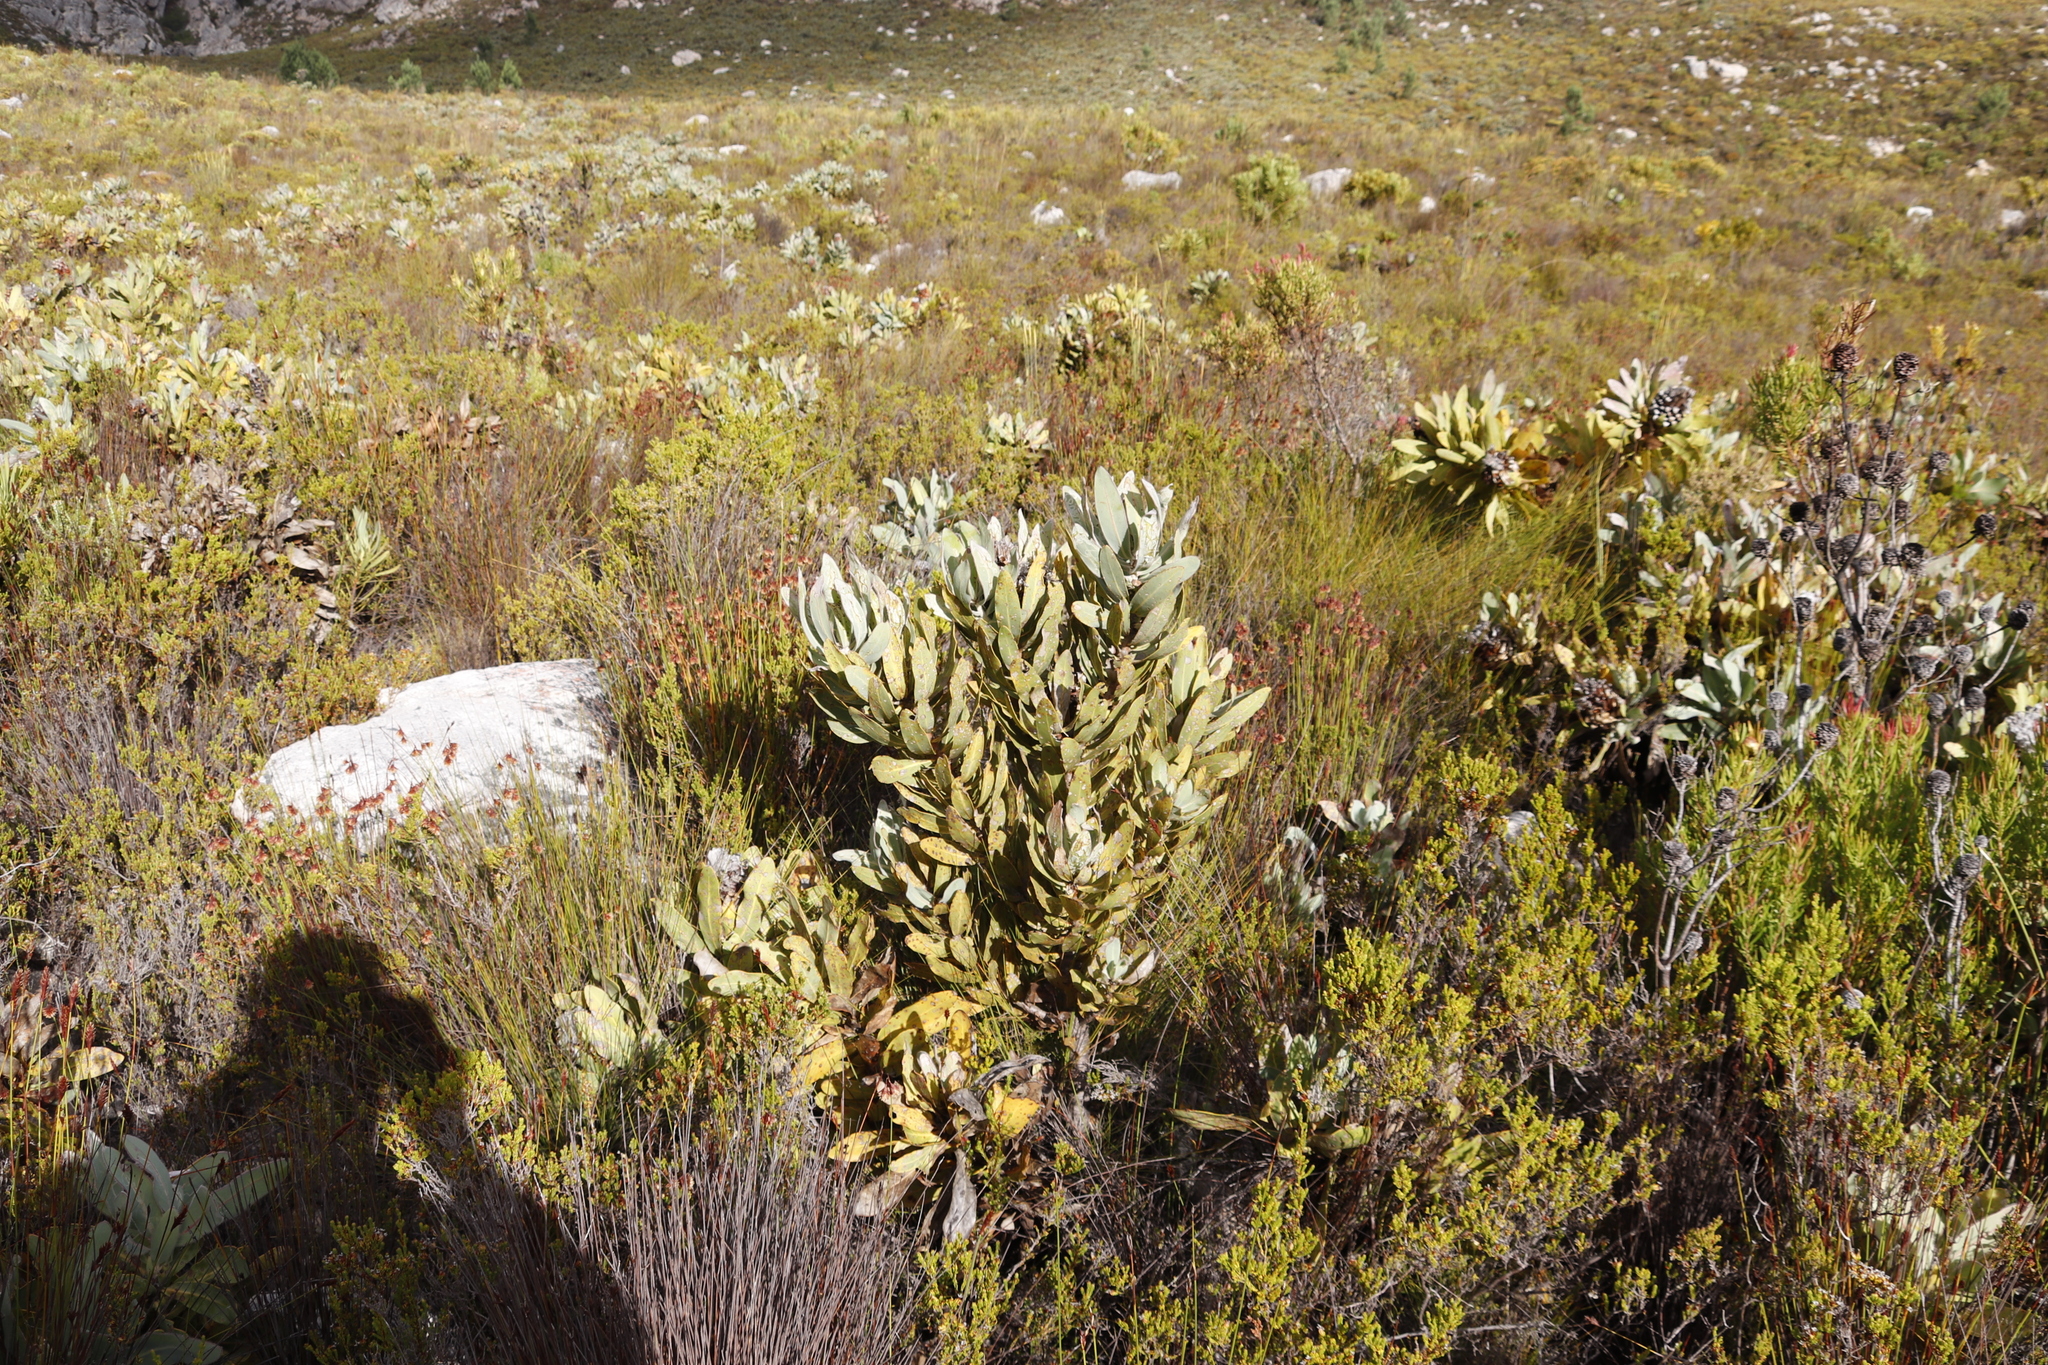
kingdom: Plantae
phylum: Tracheophyta
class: Magnoliopsida
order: Proteales
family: Proteaceae
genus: Protea
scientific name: Protea magnifica
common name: Bearded sugarbush
